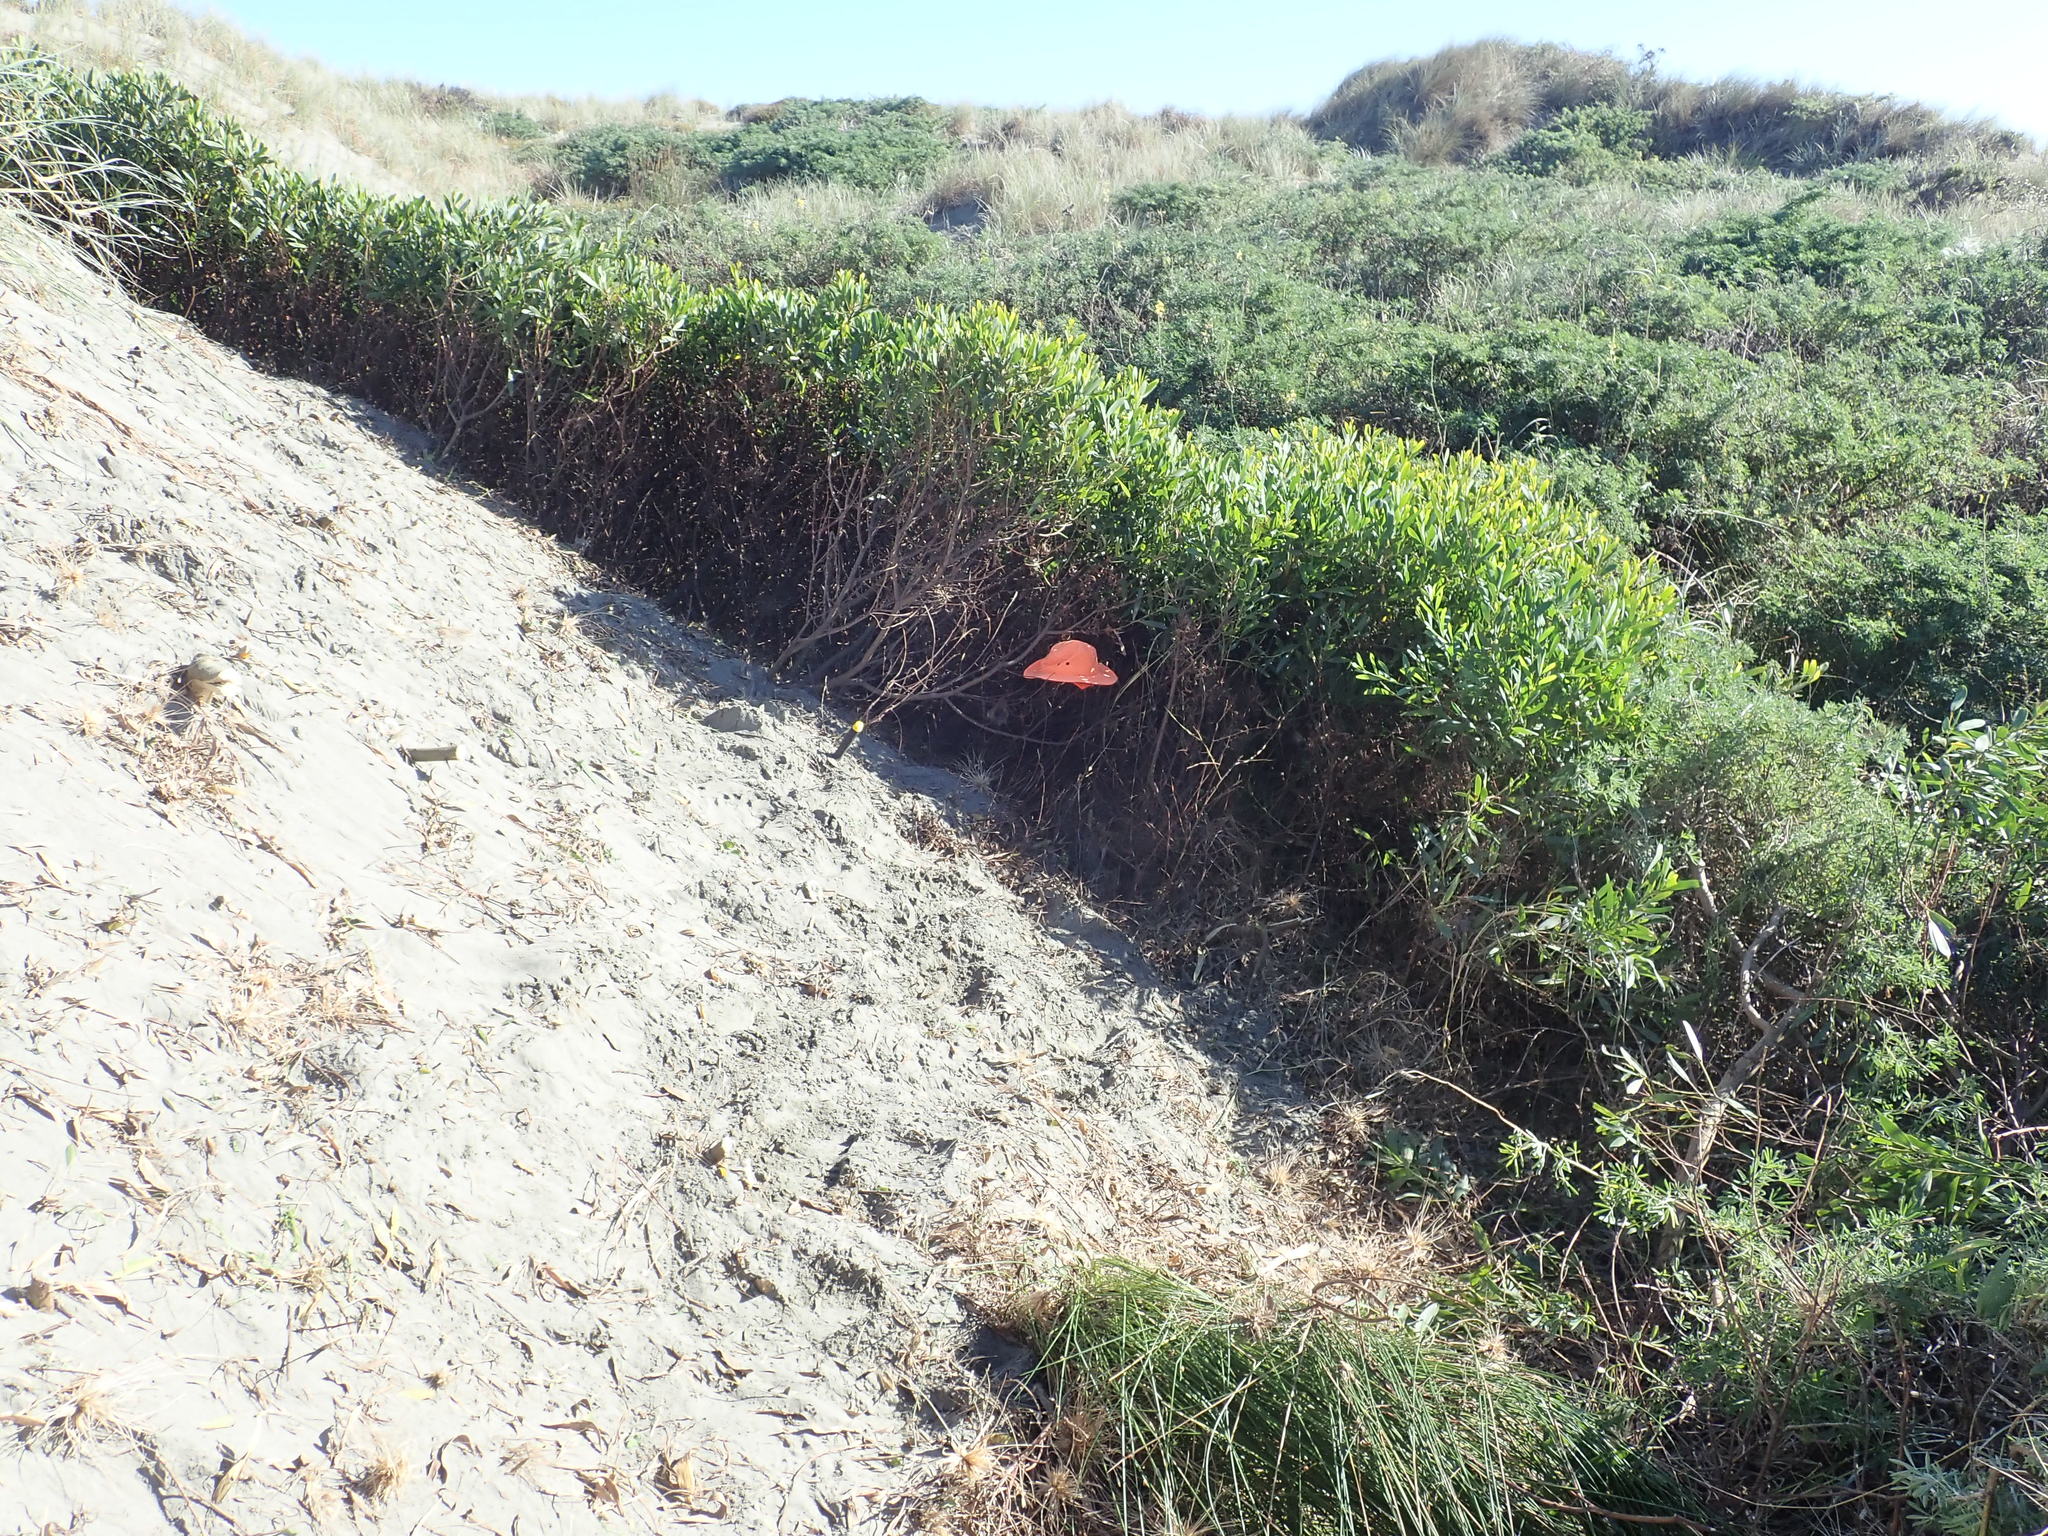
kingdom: Animalia
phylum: Chordata
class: Aves
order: Passeriformes
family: Zosteropidae
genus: Zosterops
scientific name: Zosterops lateralis
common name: Silvereye
